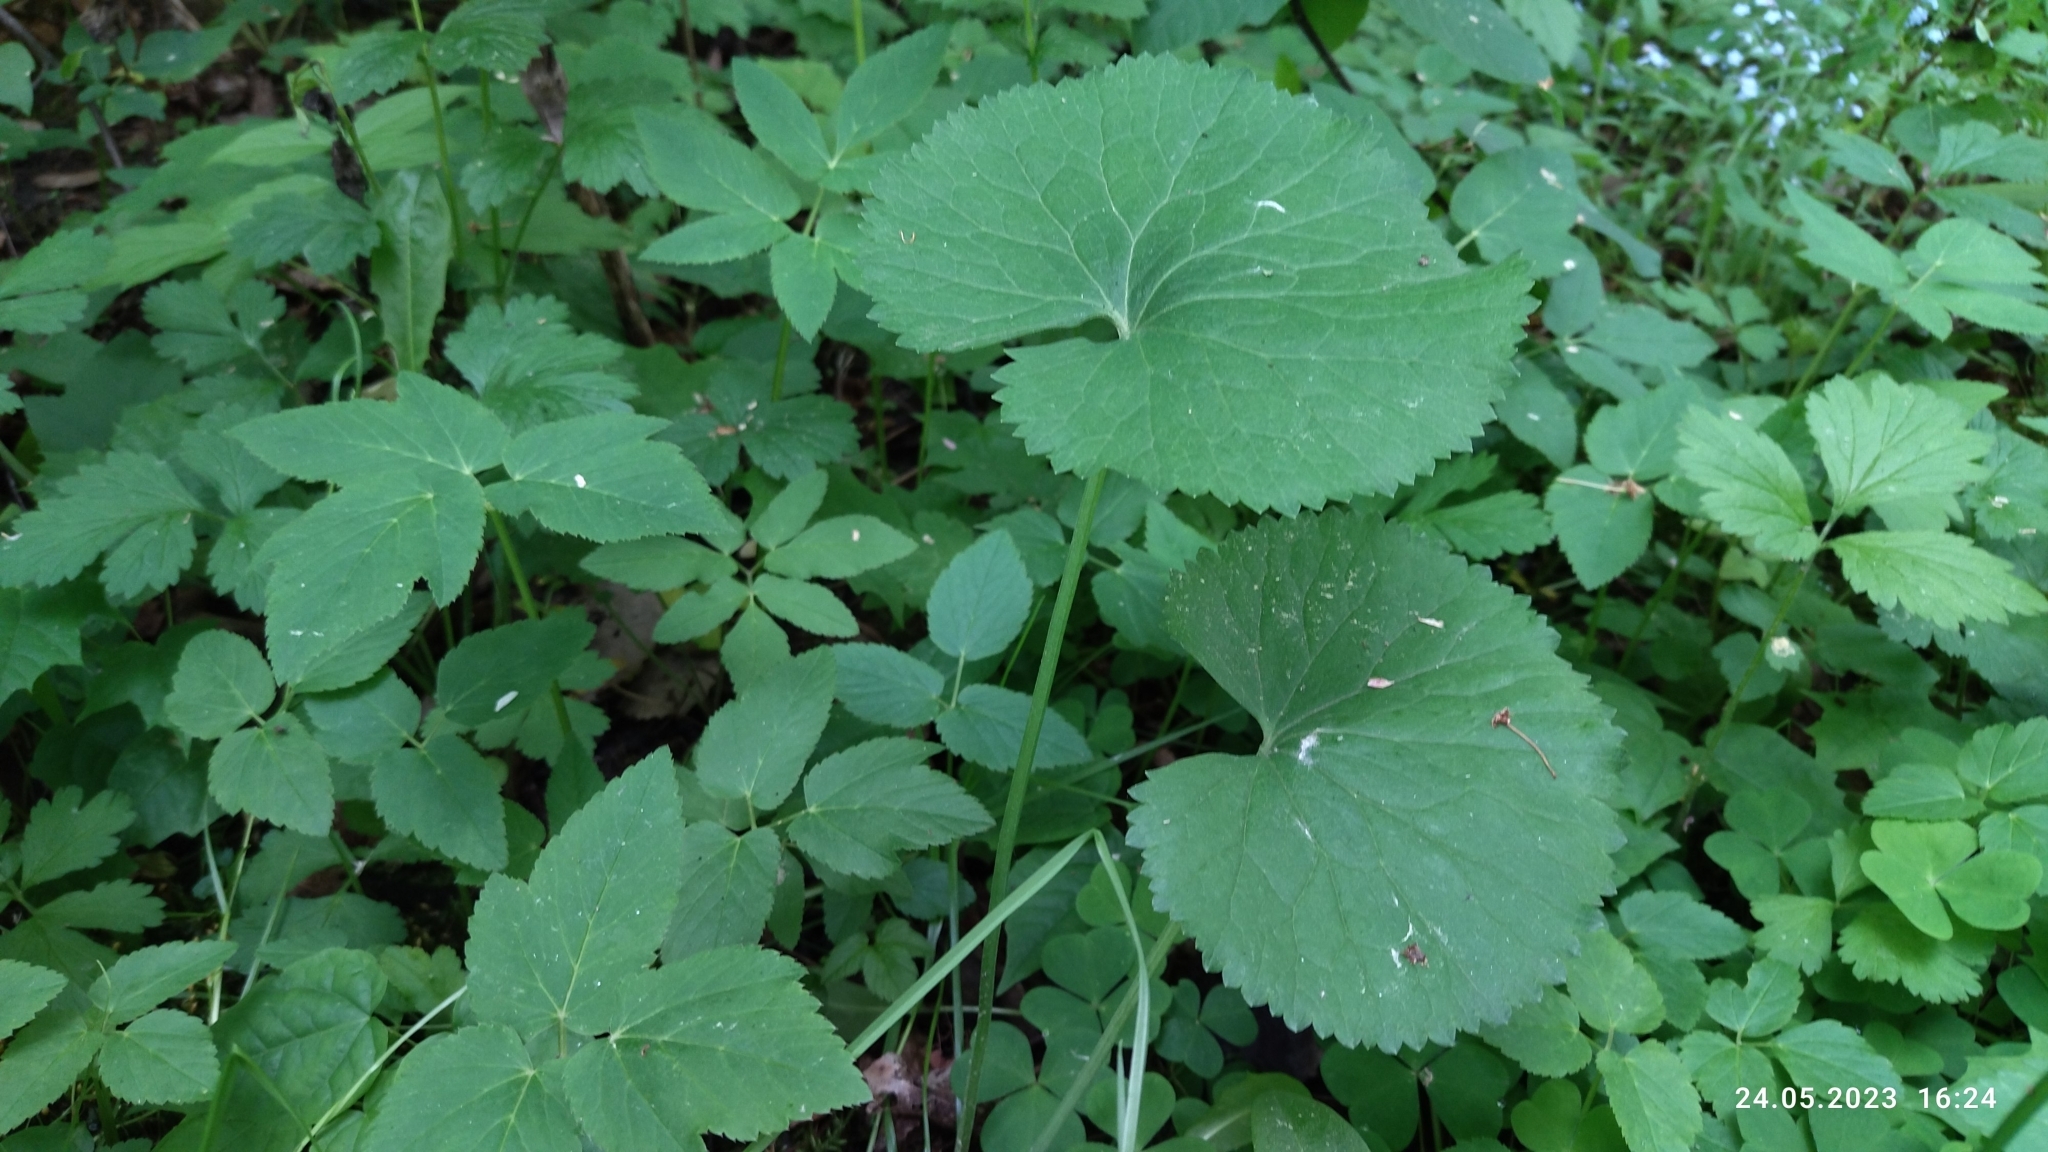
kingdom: Plantae
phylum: Tracheophyta
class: Magnoliopsida
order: Ranunculales
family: Ranunculaceae
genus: Ranunculus
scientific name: Ranunculus cassubicus
